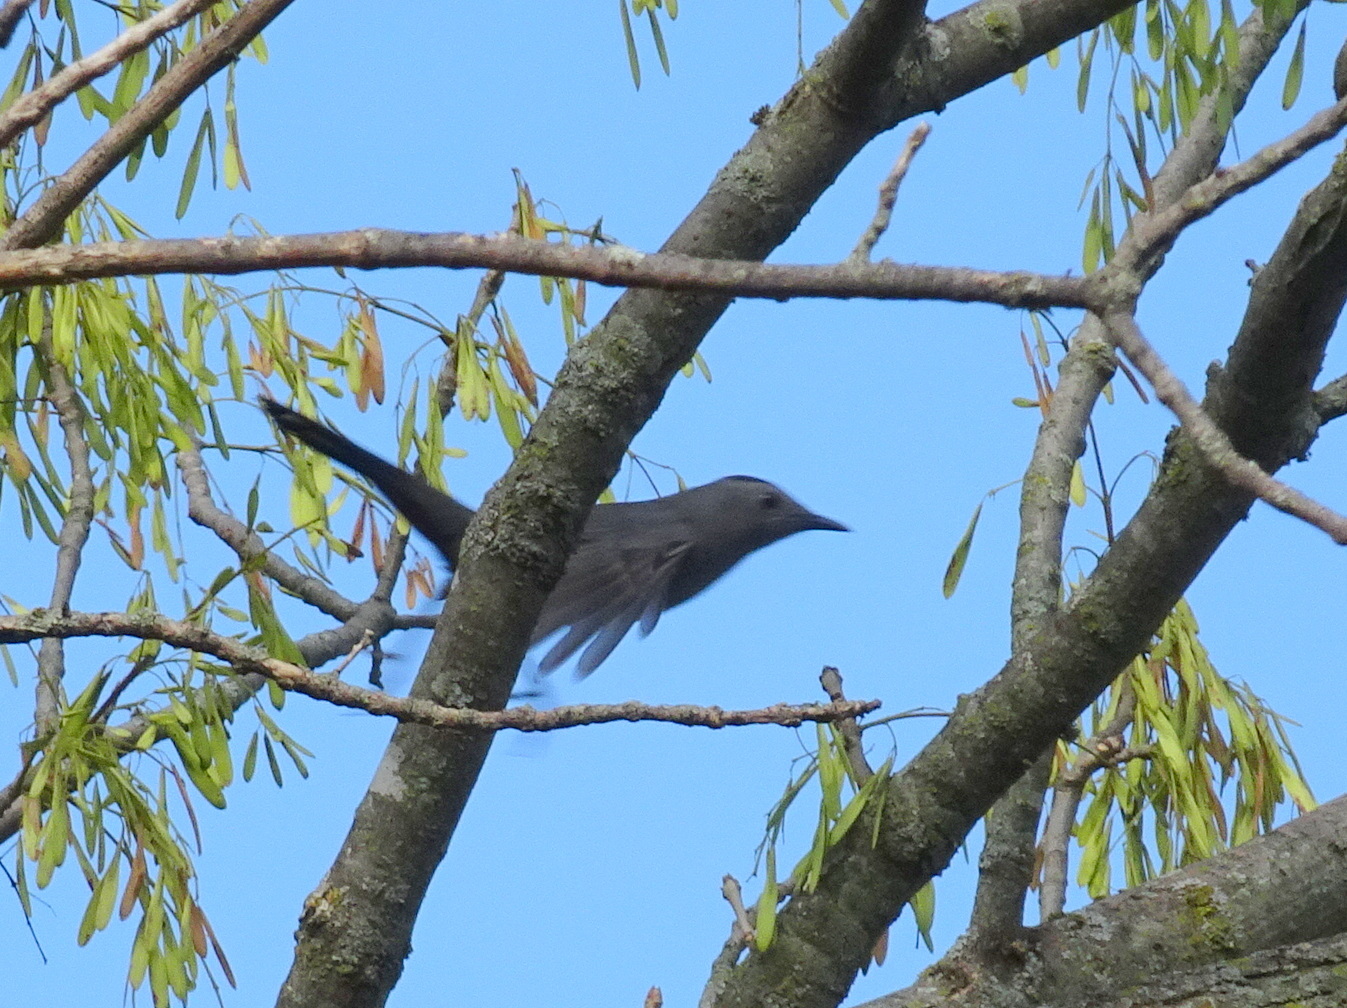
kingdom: Animalia
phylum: Chordata
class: Aves
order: Passeriformes
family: Mimidae
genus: Dumetella
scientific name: Dumetella carolinensis
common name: Gray catbird
